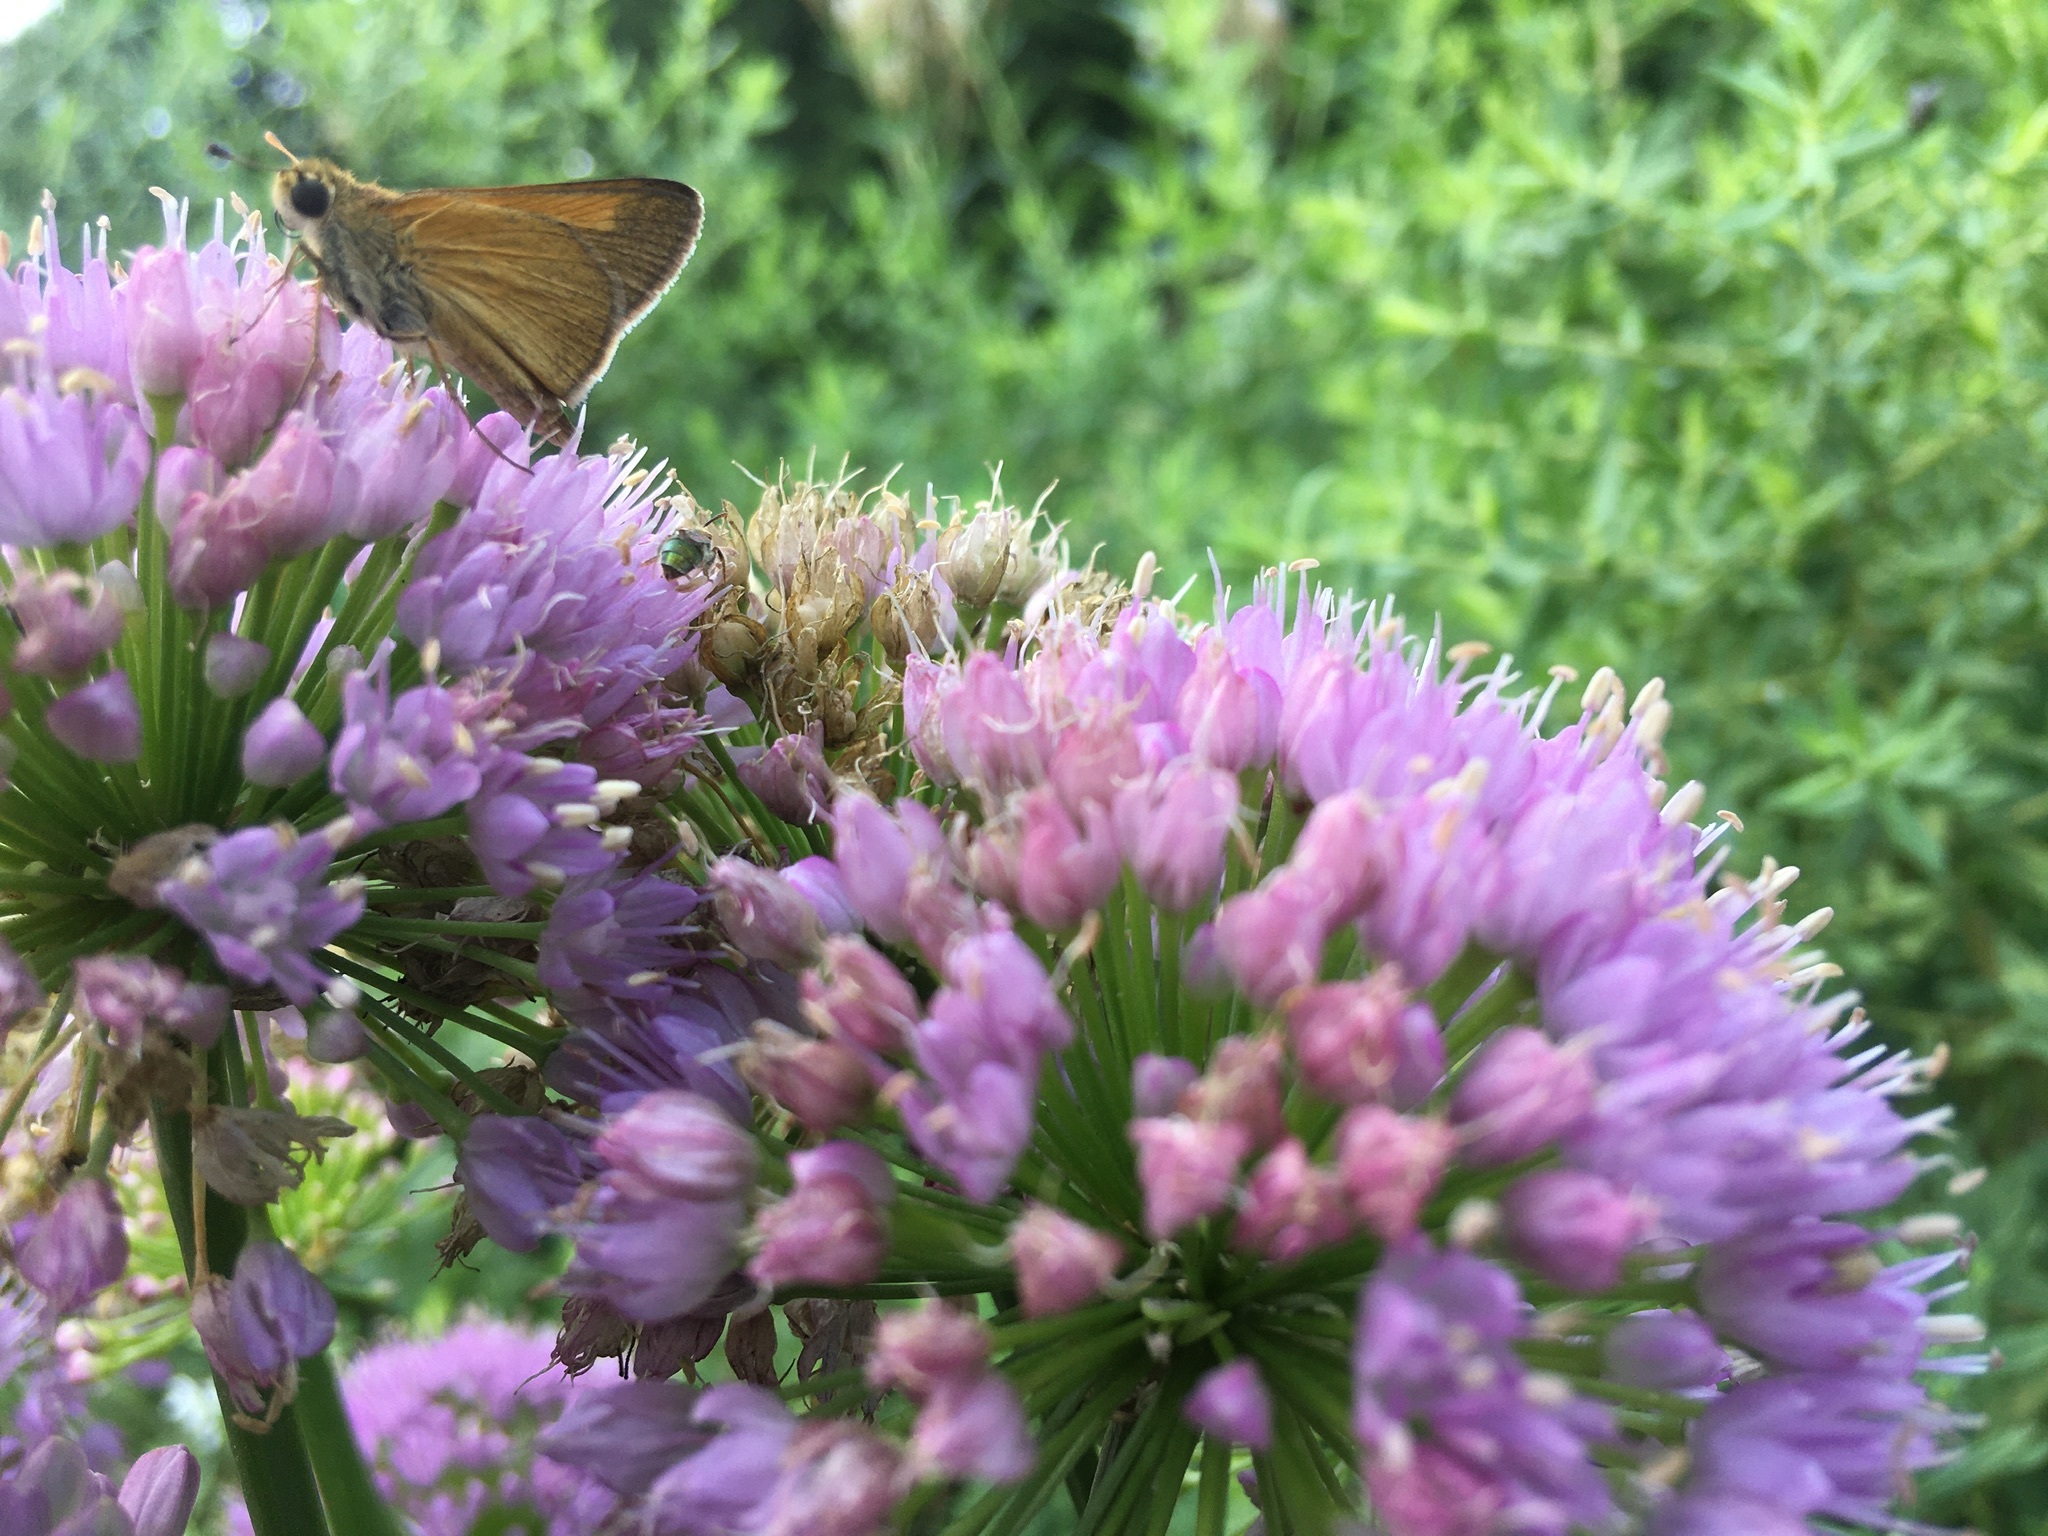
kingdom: Animalia
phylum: Arthropoda
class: Insecta
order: Lepidoptera
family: Hesperiidae
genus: Polites
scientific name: Polites themistocles
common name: Tawny-edged skipper
